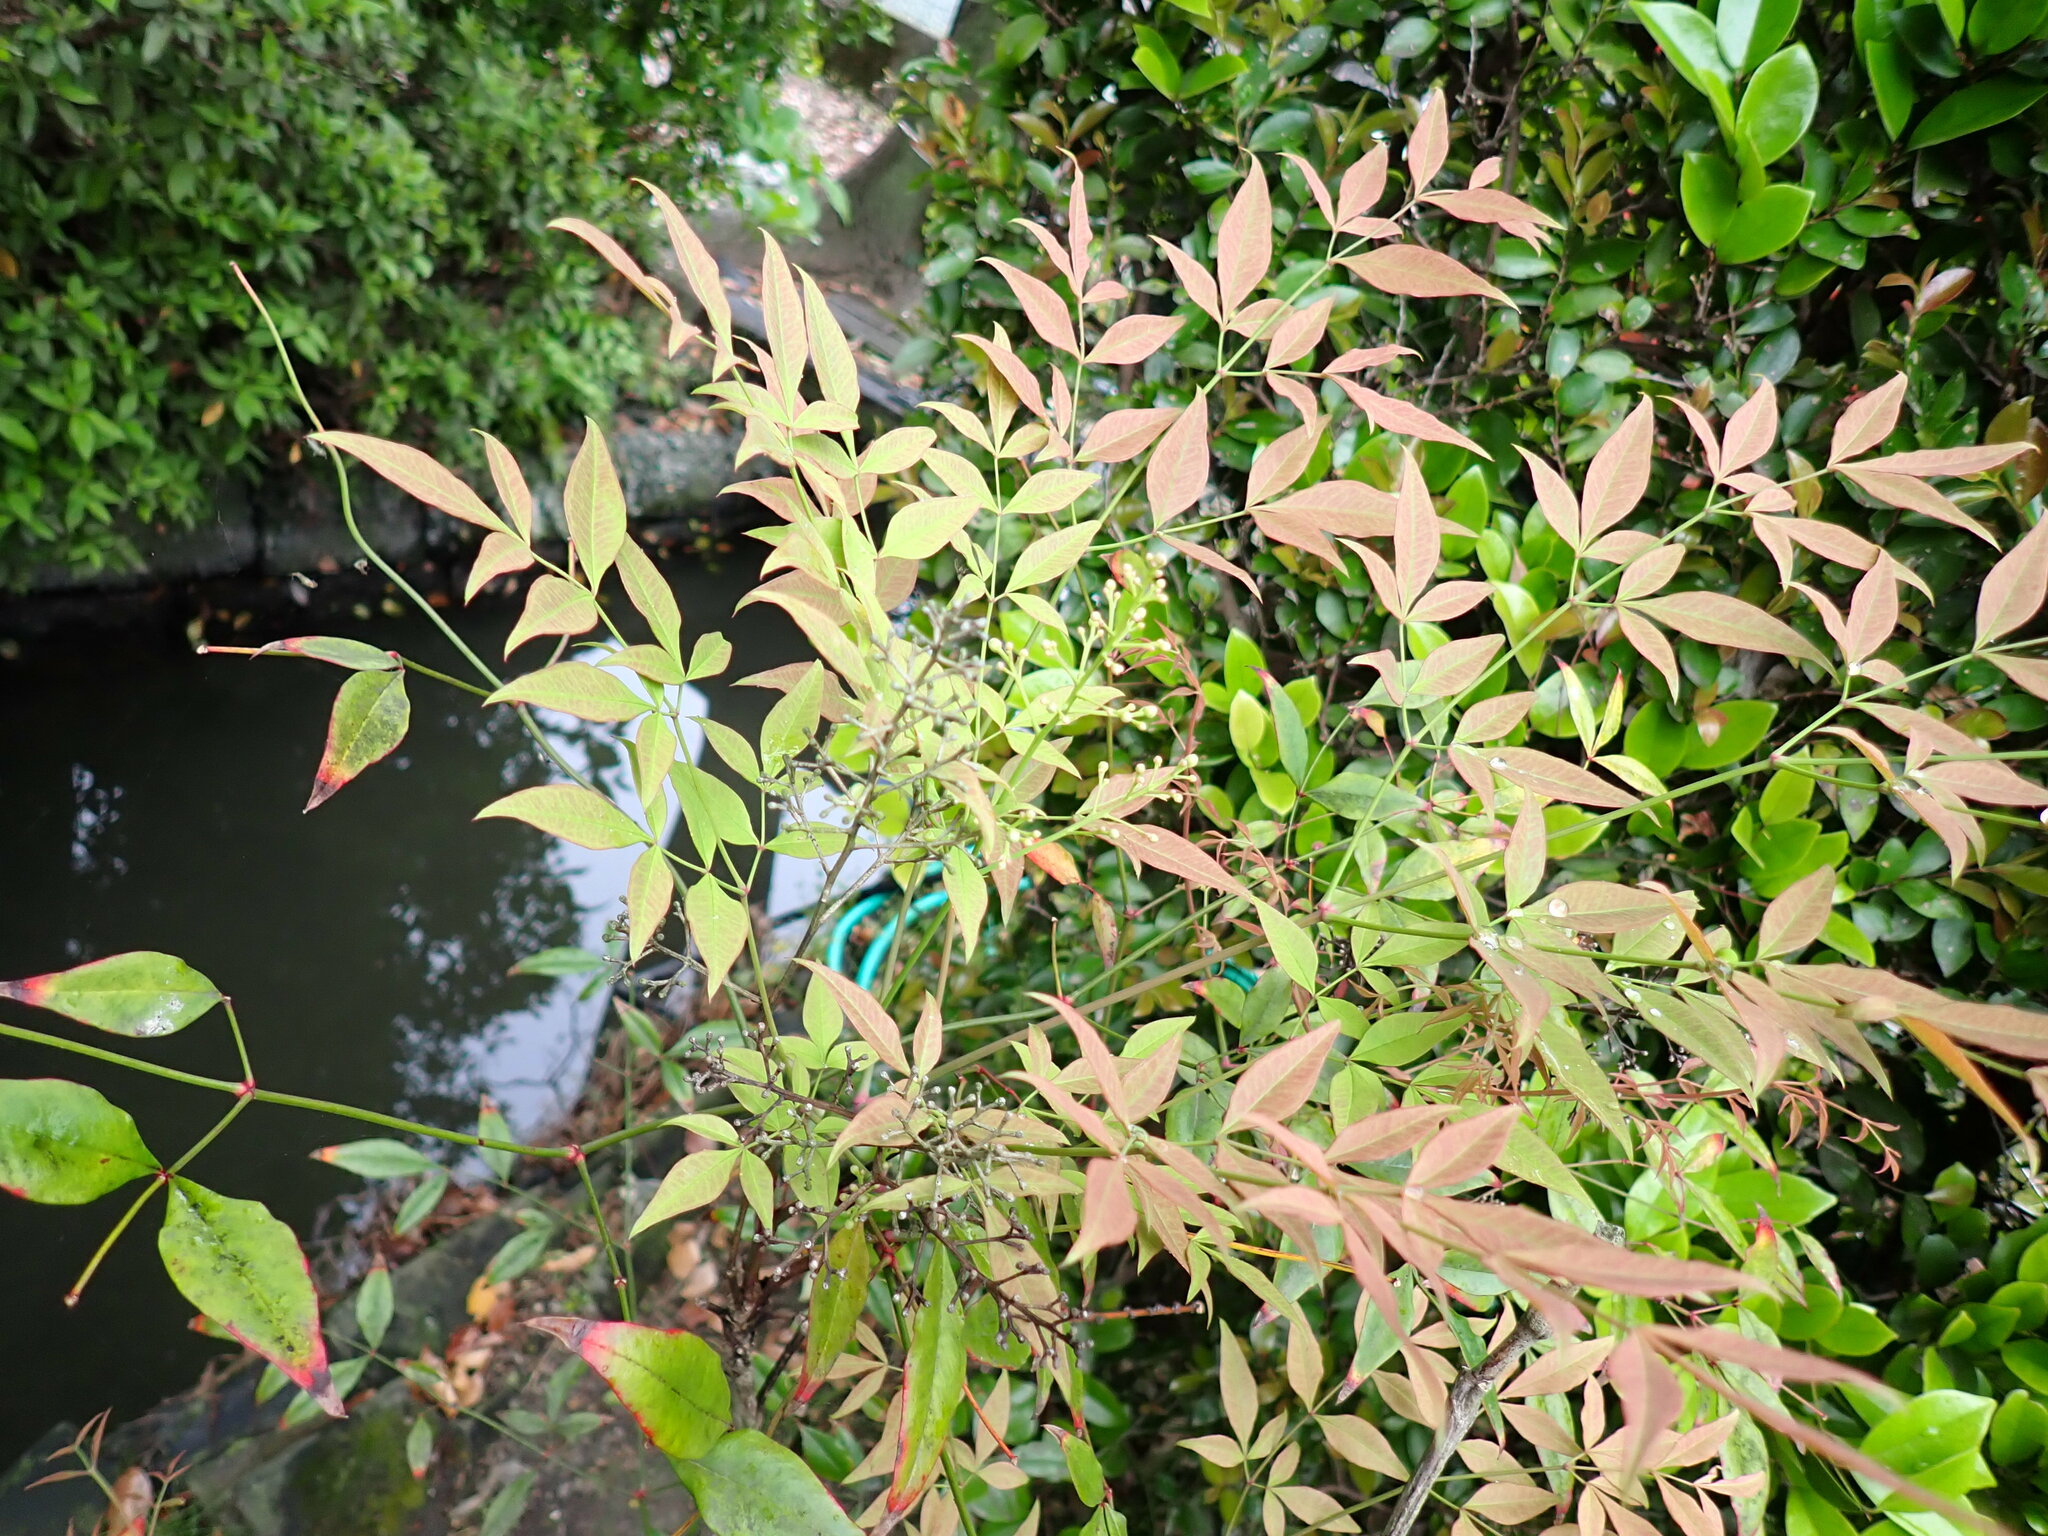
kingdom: Plantae
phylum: Tracheophyta
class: Magnoliopsida
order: Ranunculales
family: Berberidaceae
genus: Nandina
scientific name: Nandina domestica
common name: Sacred bamboo
